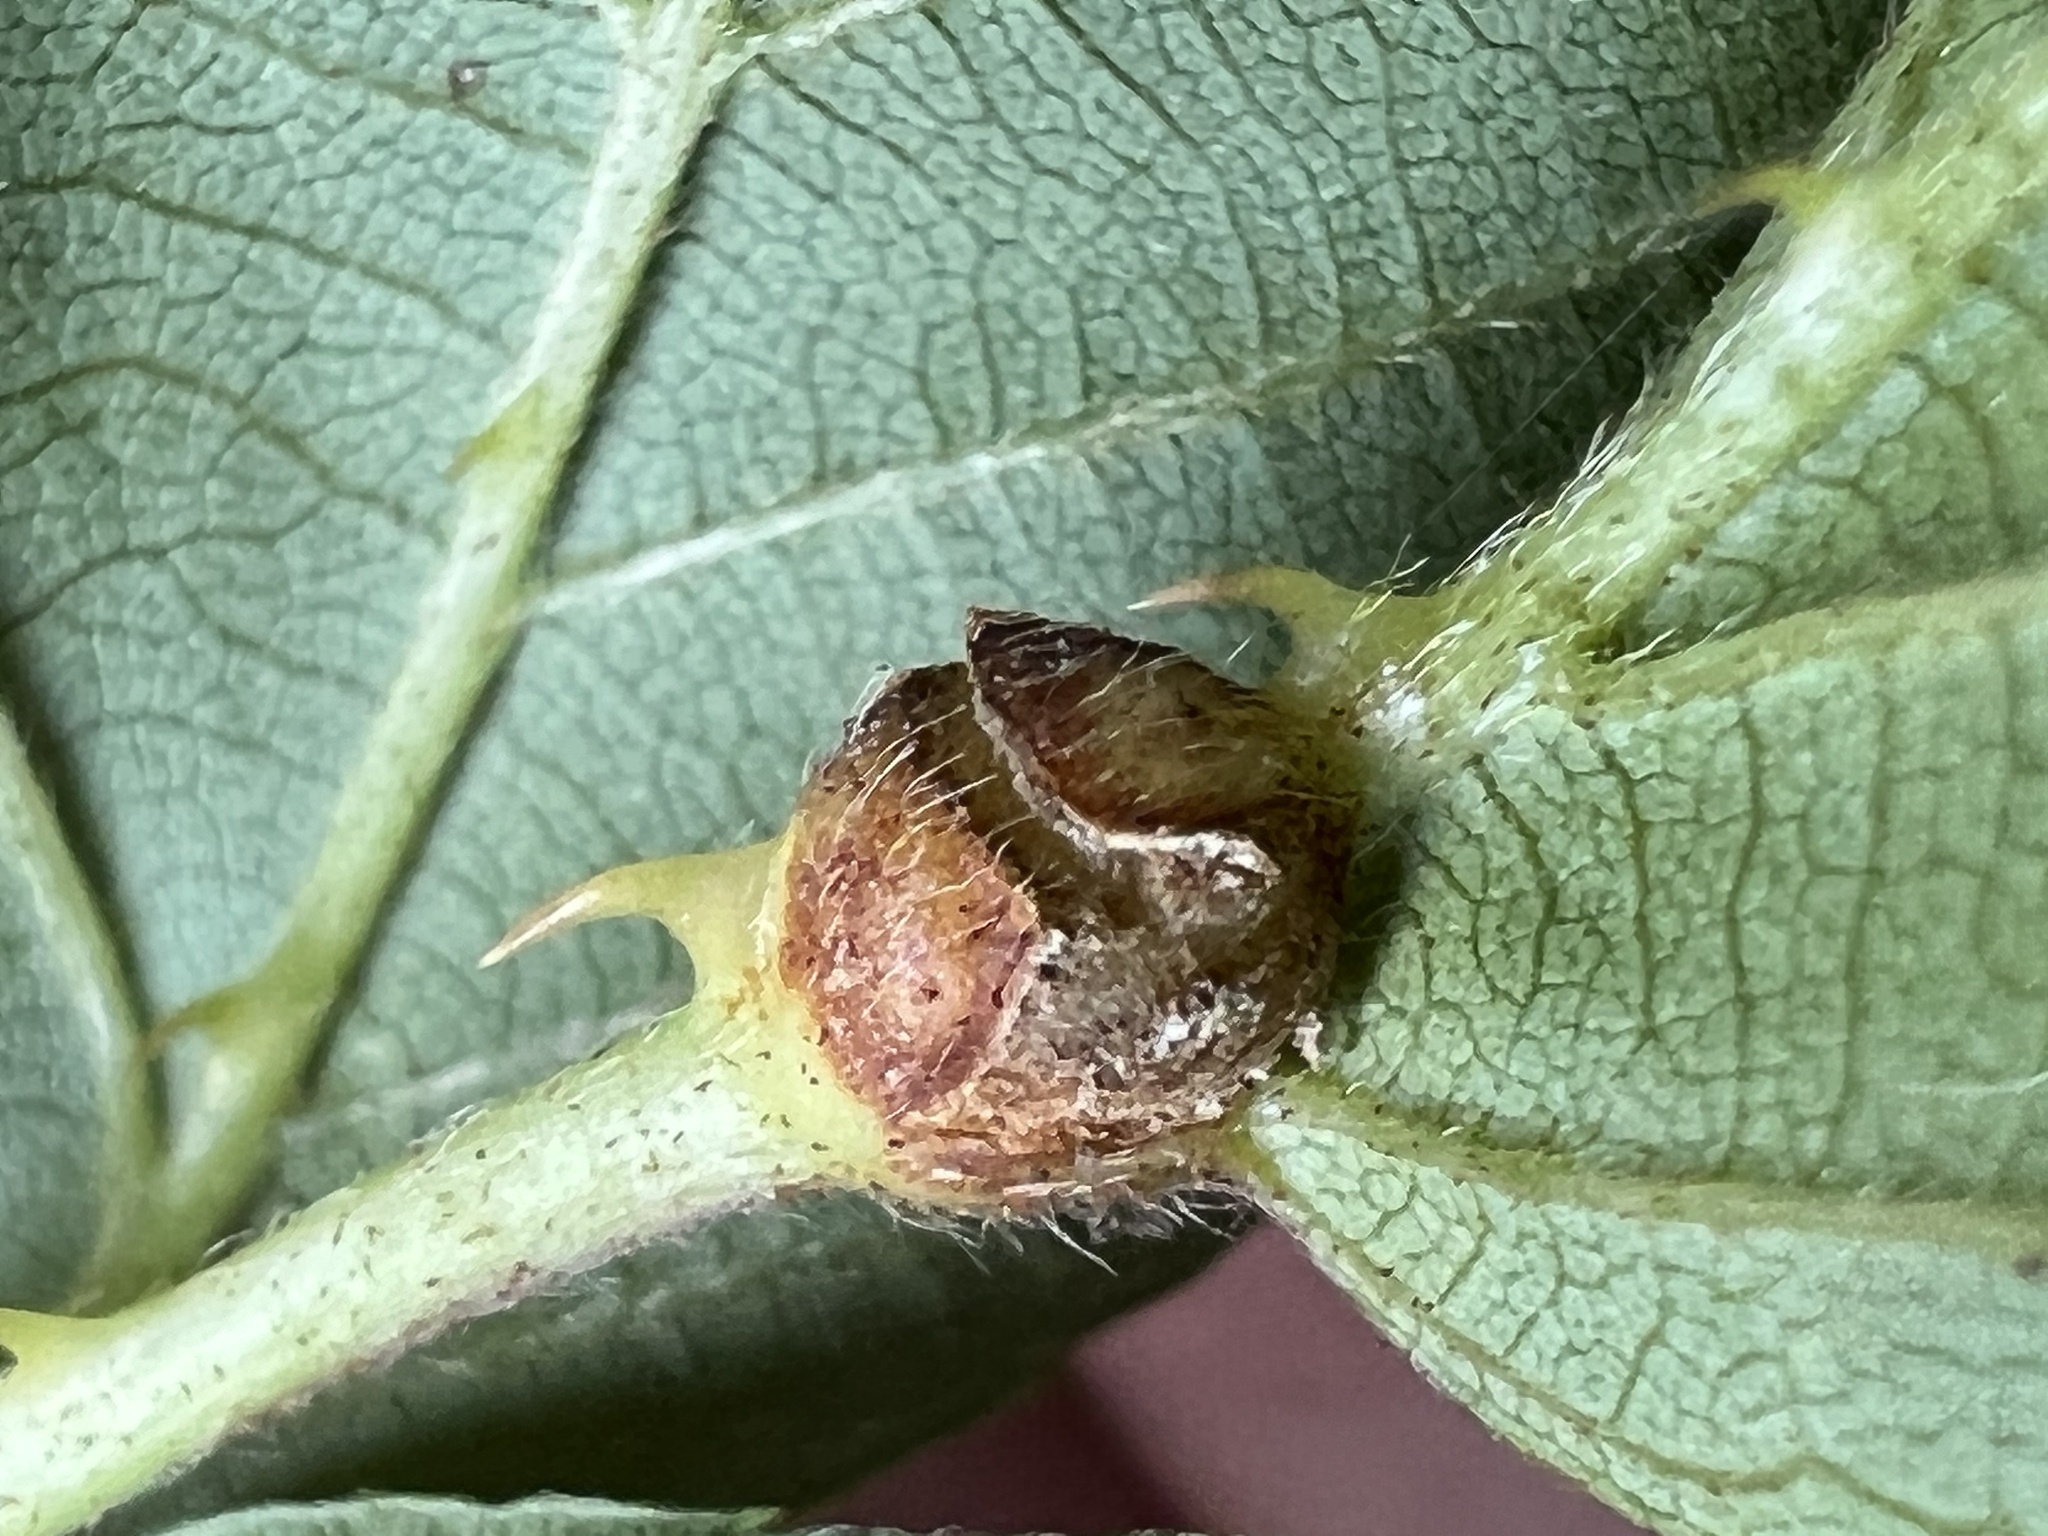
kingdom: Animalia
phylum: Arthropoda
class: Insecta
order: Diptera
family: Cecidomyiidae
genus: Neolasioptera
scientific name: Neolasioptera farinosa
